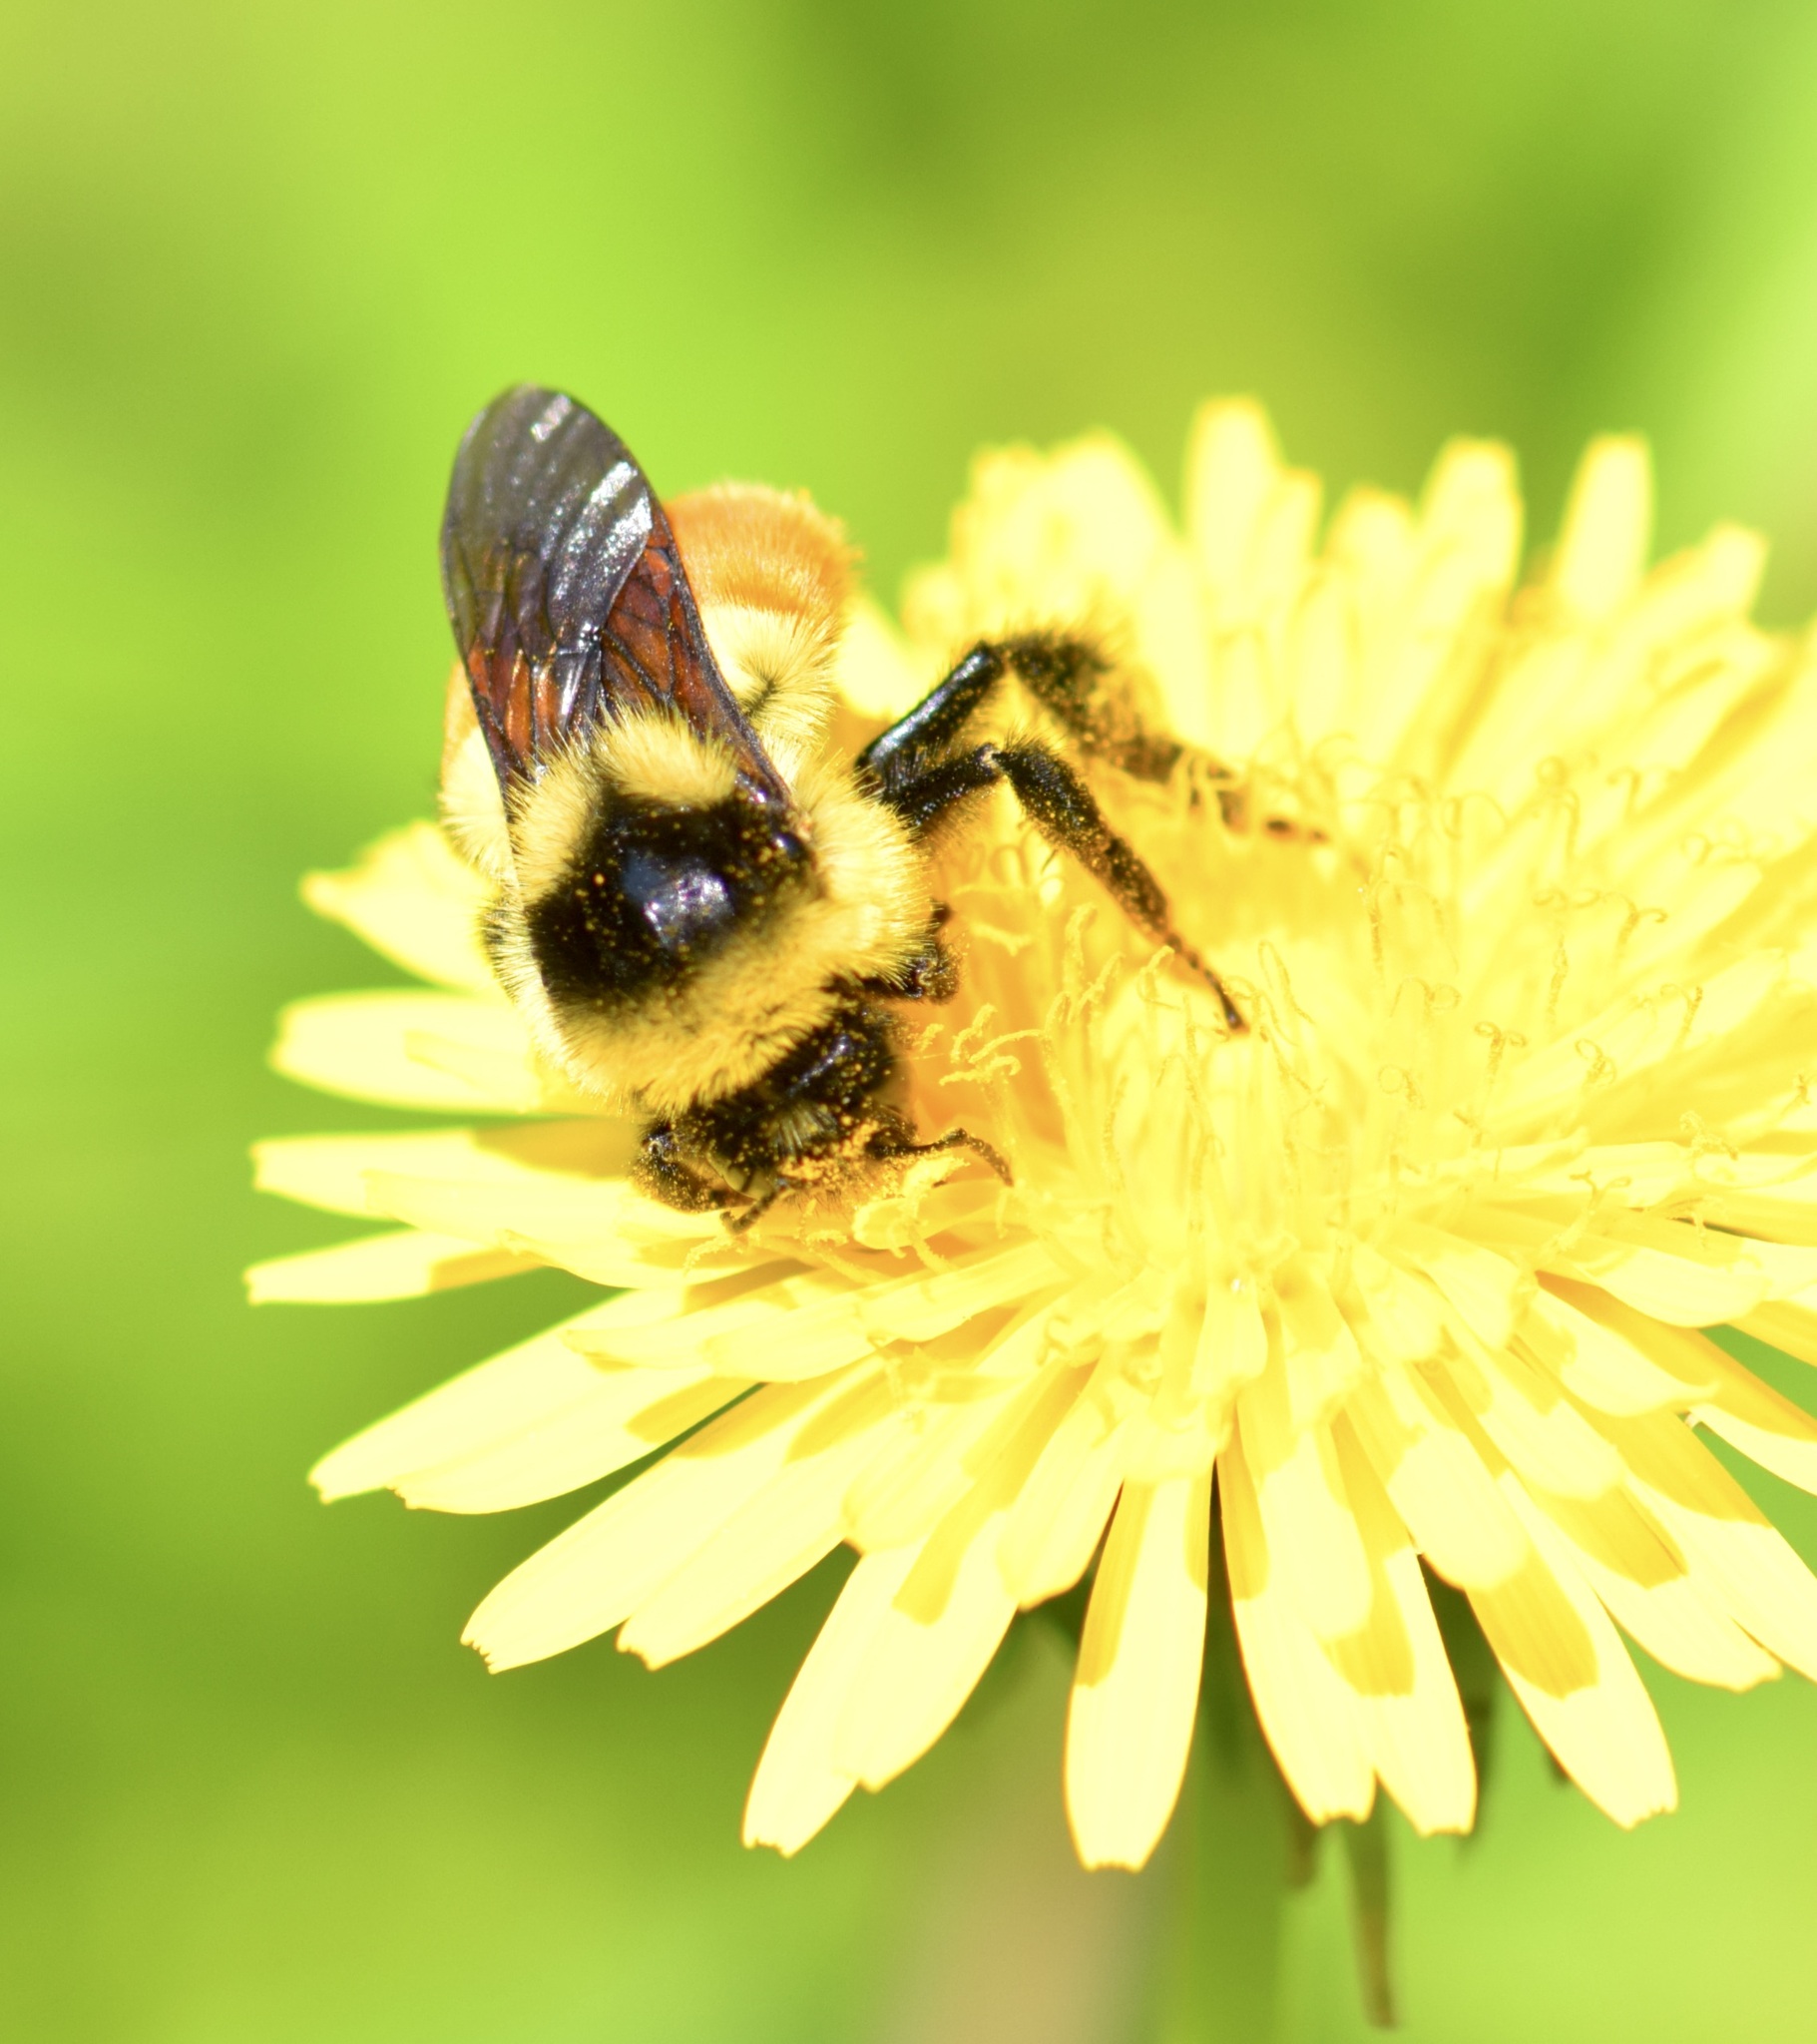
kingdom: Animalia
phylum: Arthropoda
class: Insecta
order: Hymenoptera
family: Apidae
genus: Bombus
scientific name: Bombus ternarius
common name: Tri-colored bumble bee
